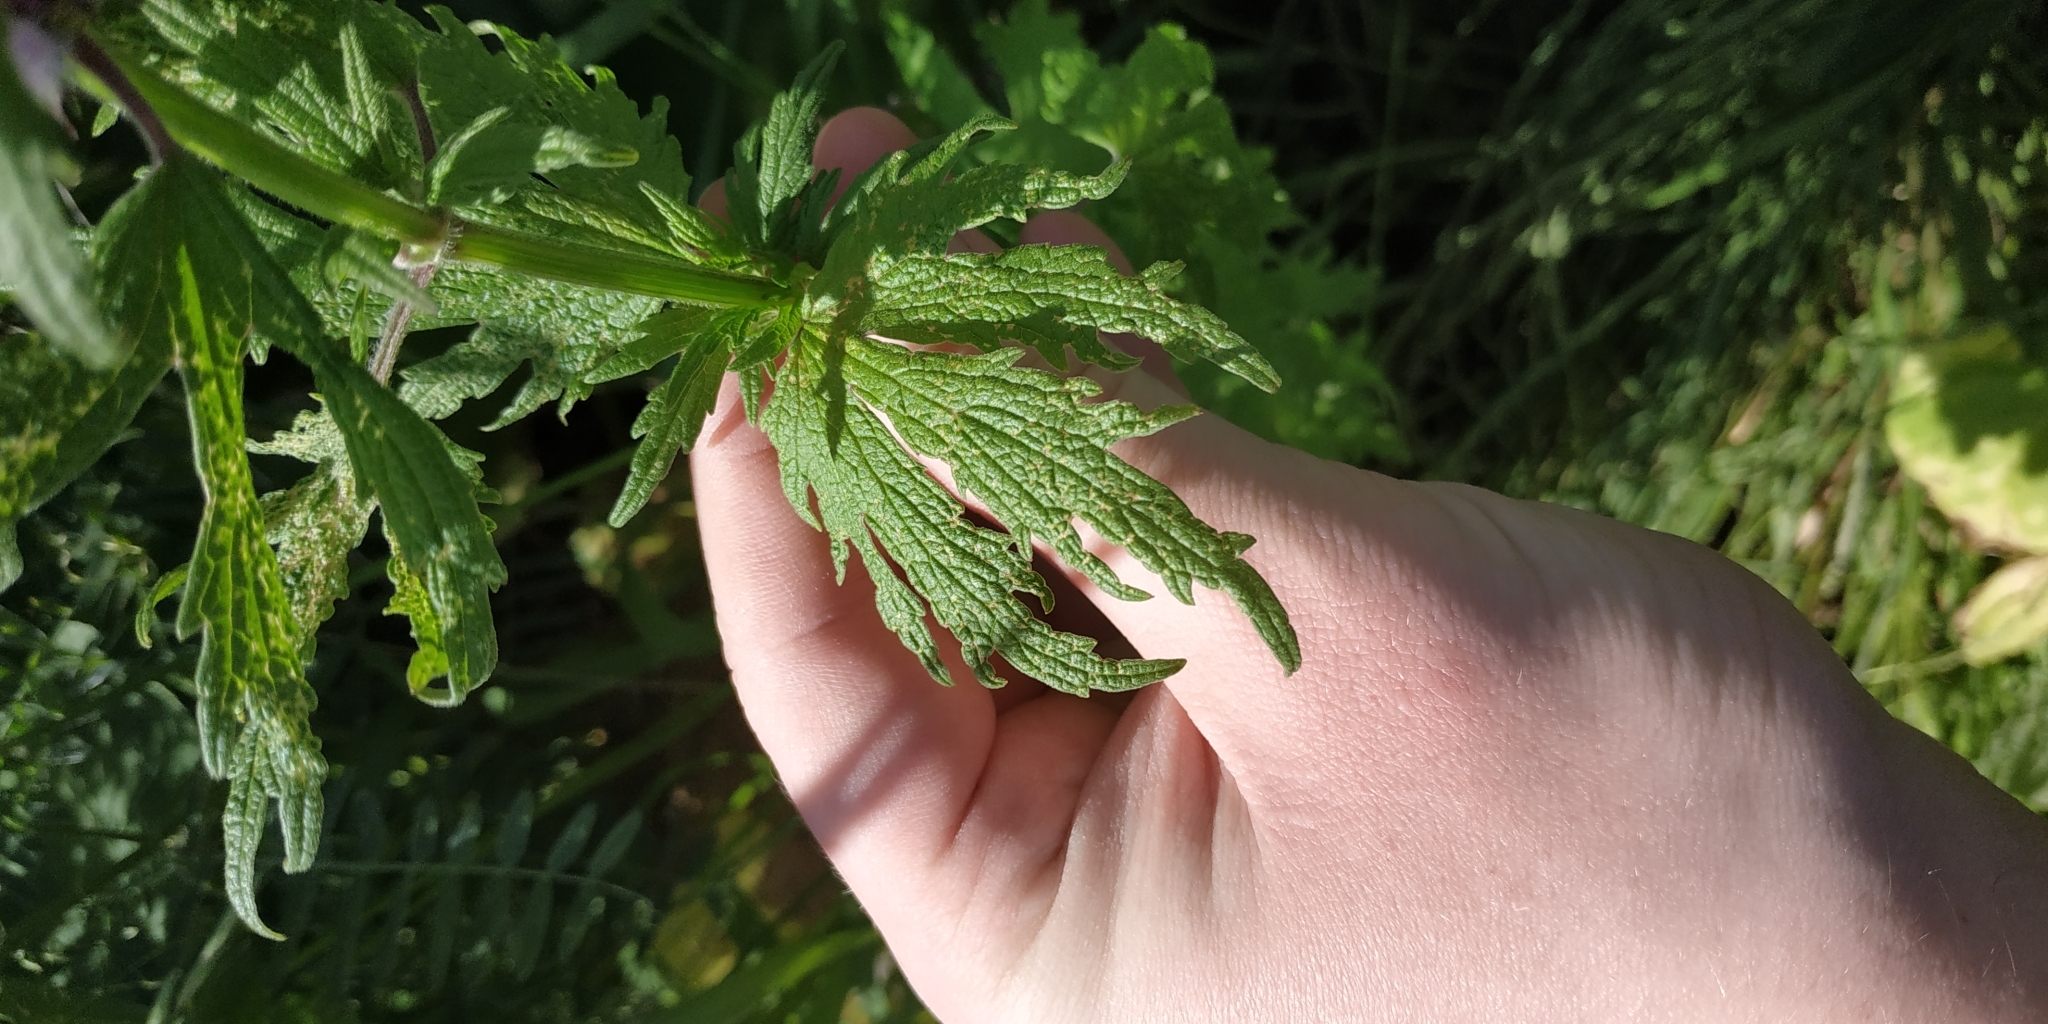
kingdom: Plantae
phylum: Tracheophyta
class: Magnoliopsida
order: Lamiales
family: Lamiaceae
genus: Leonurus
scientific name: Leonurus glaucescens
